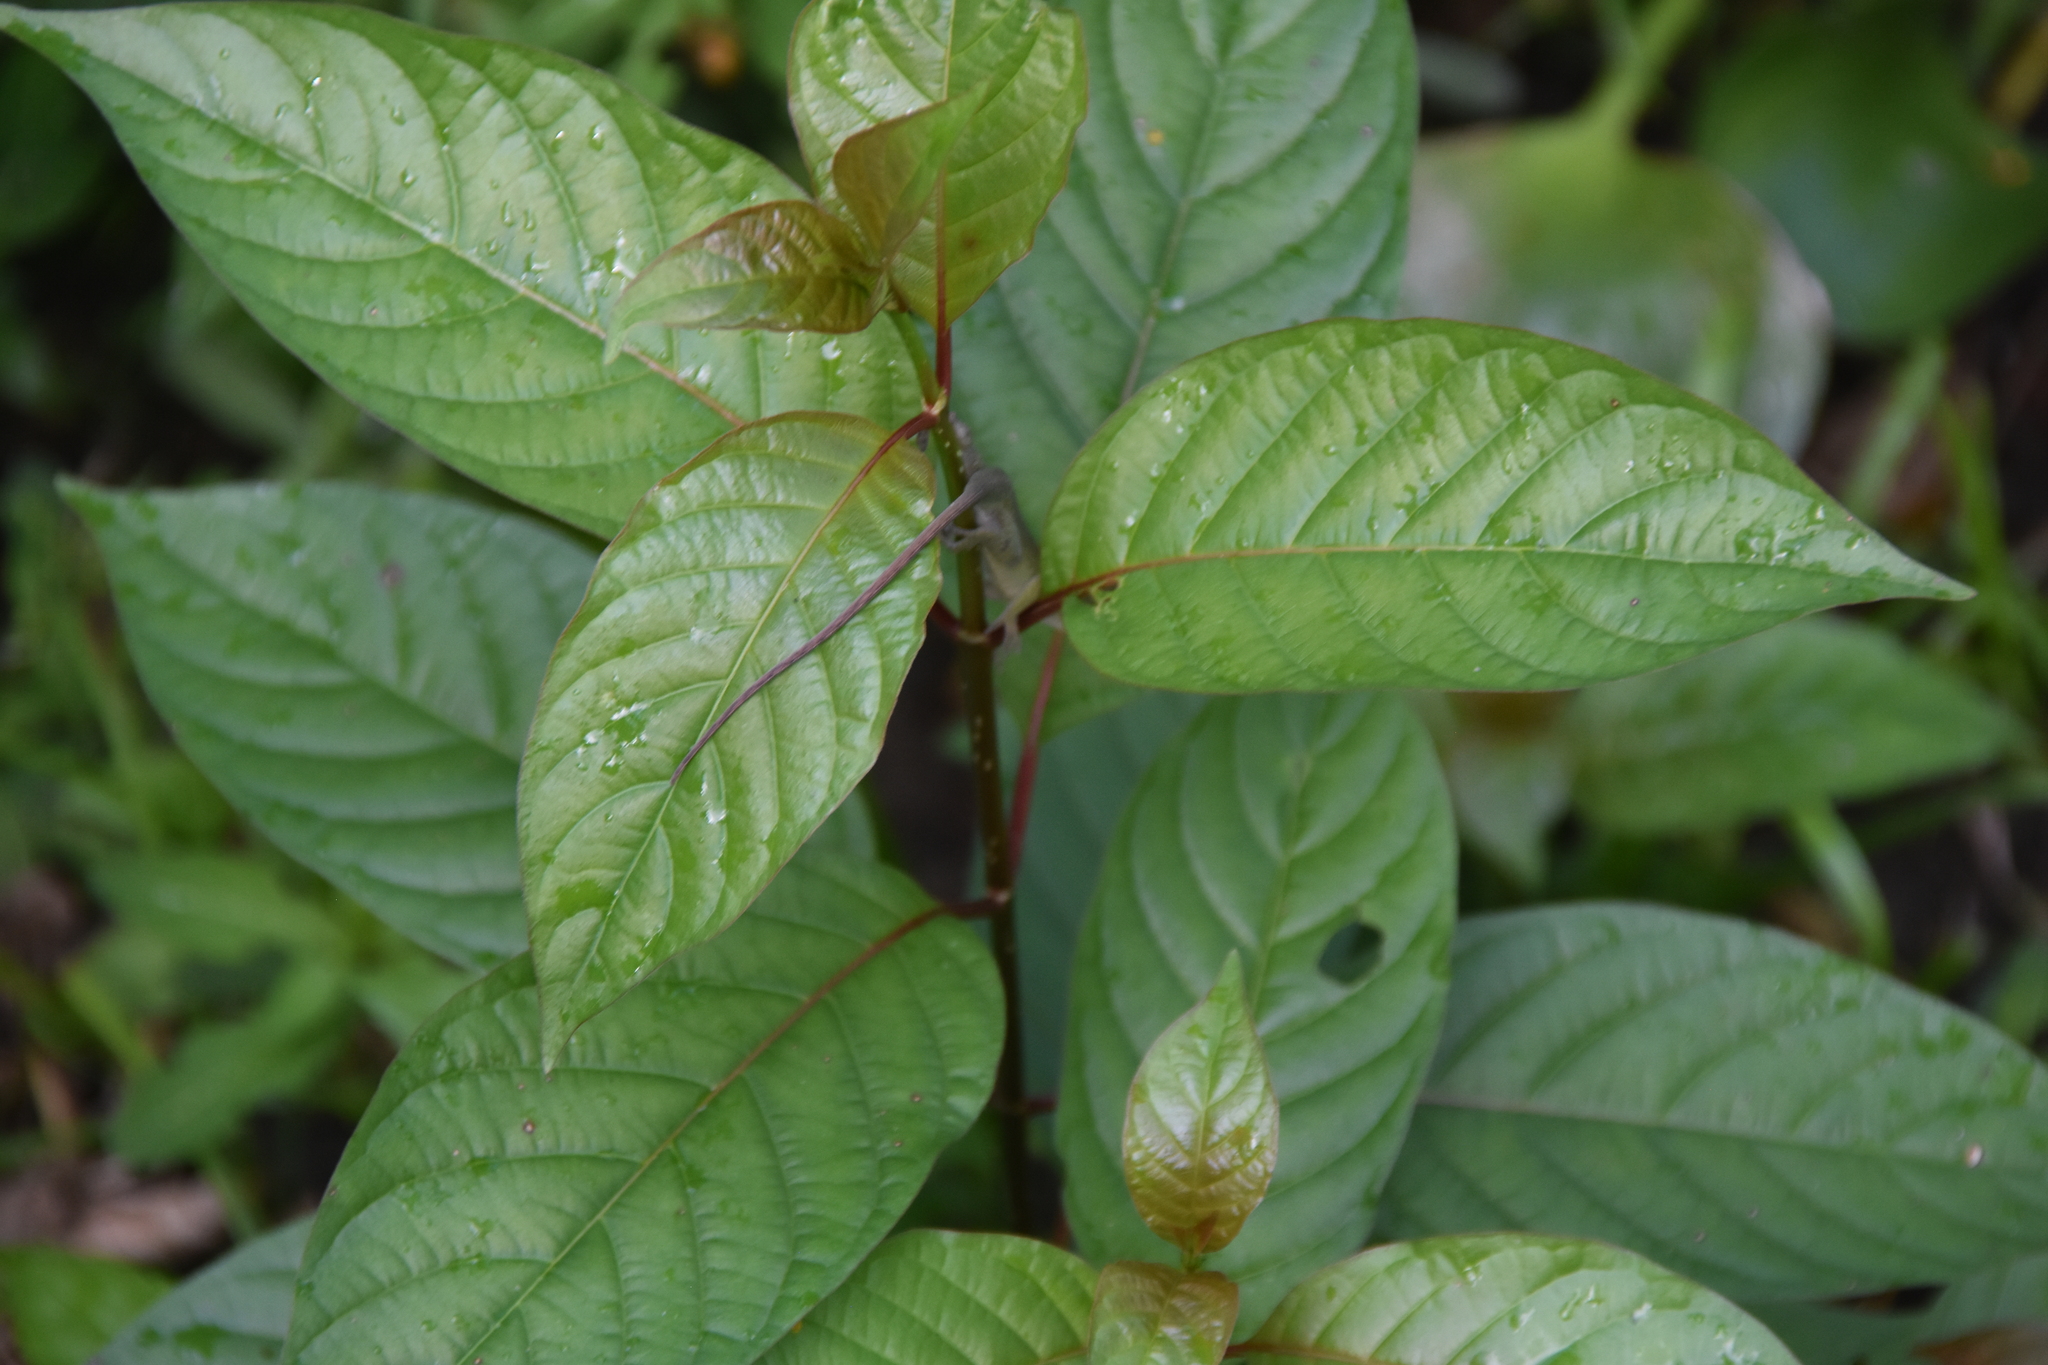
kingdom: Animalia
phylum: Chordata
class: Squamata
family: Dactyloidae
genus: Anolis
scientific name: Anolis carolinensis
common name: Green anole
